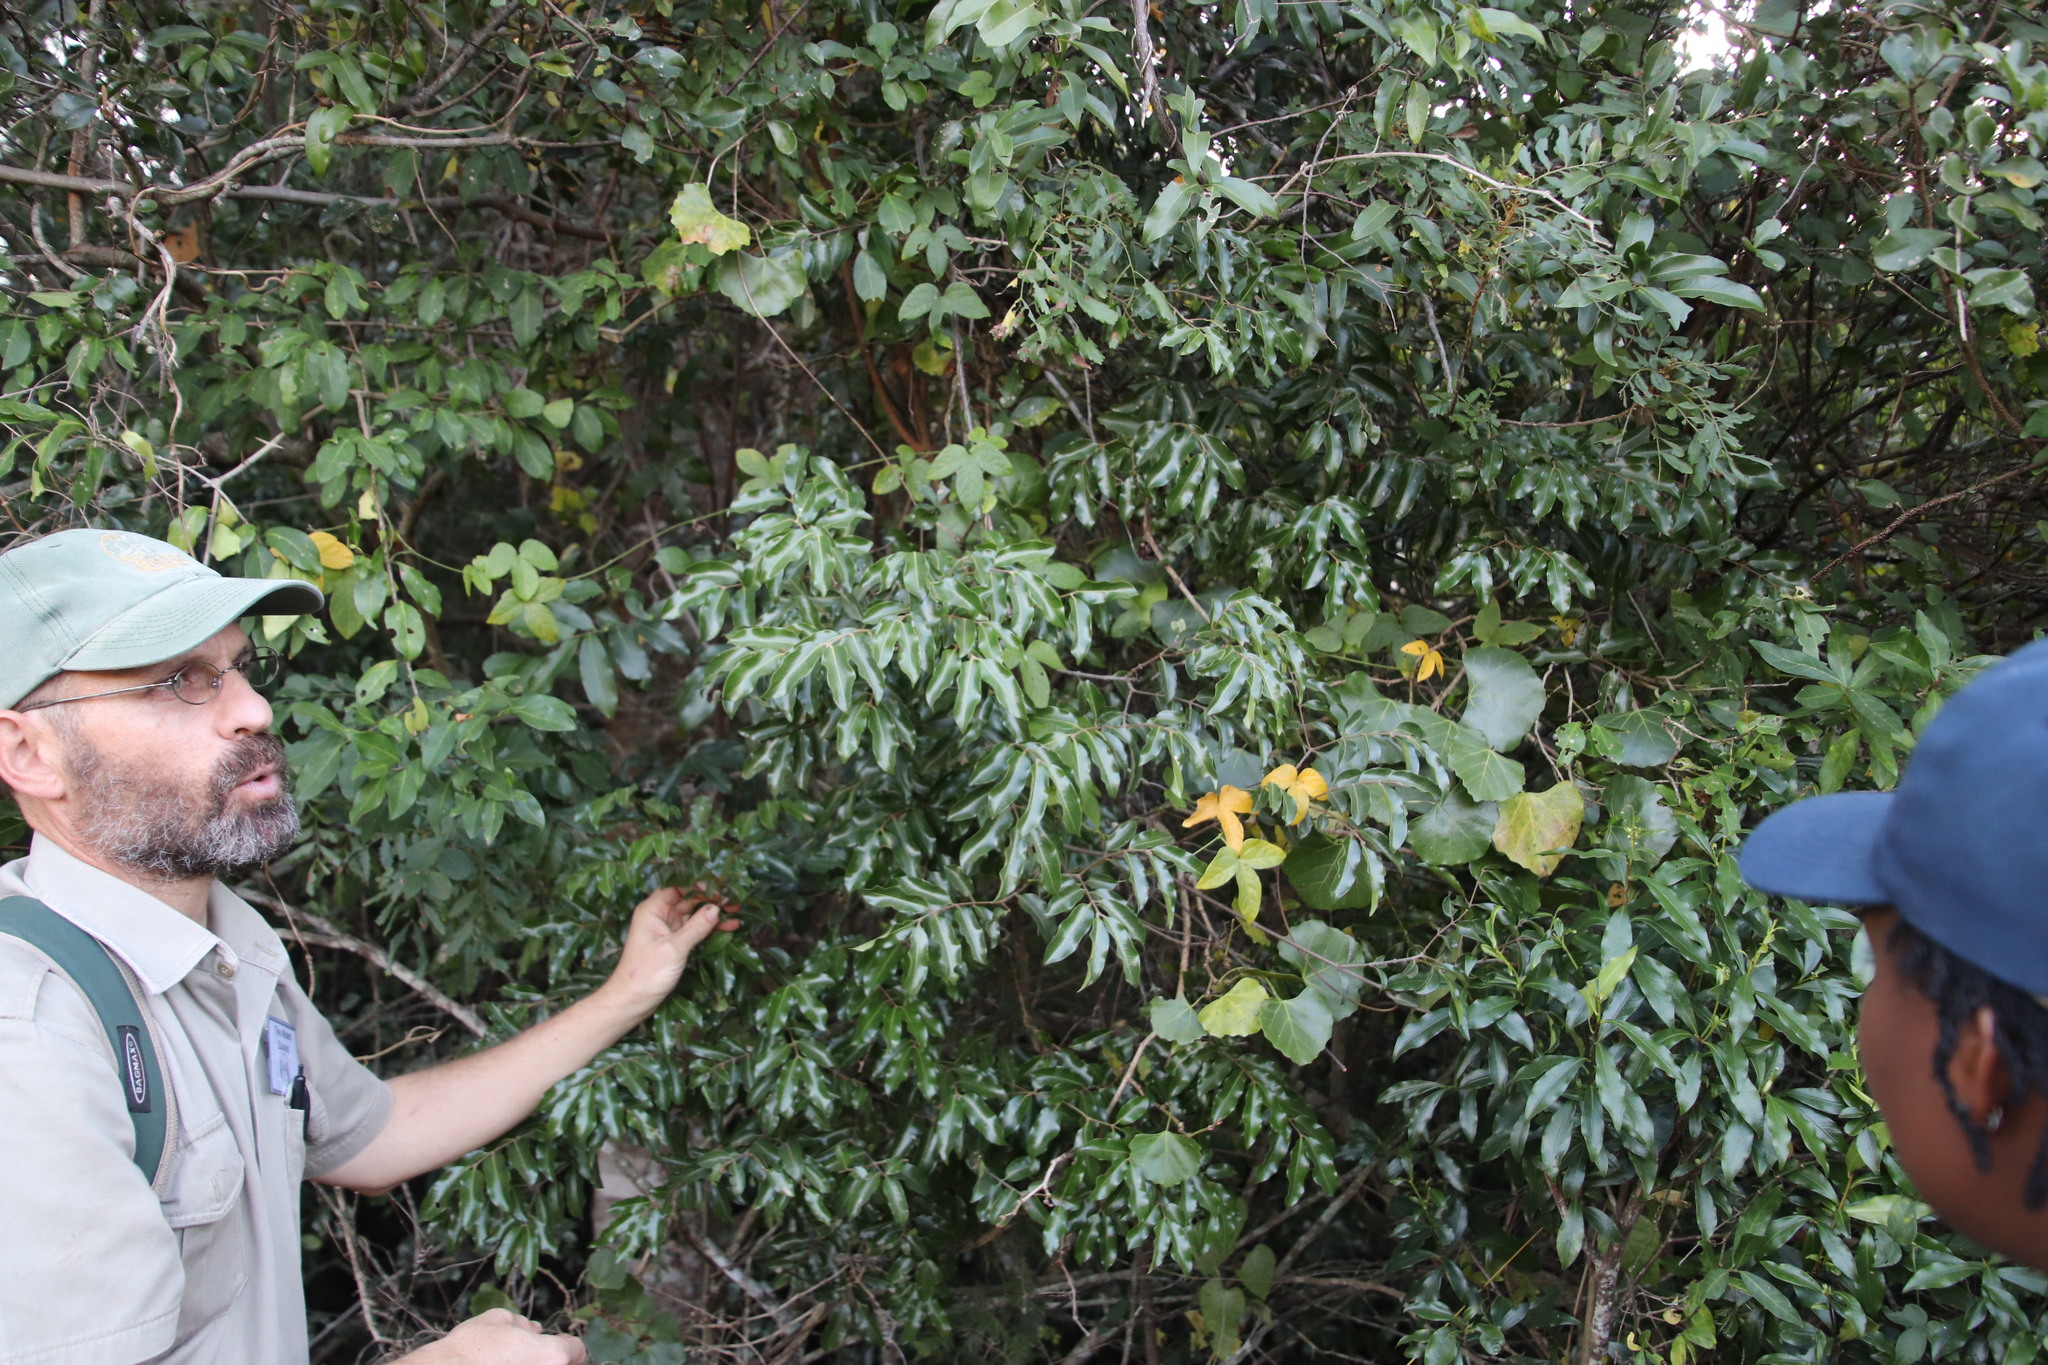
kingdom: Plantae
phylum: Tracheophyta
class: Magnoliopsida
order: Gentianales
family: Apocynaceae
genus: Landolphia
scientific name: Landolphia kirkii
